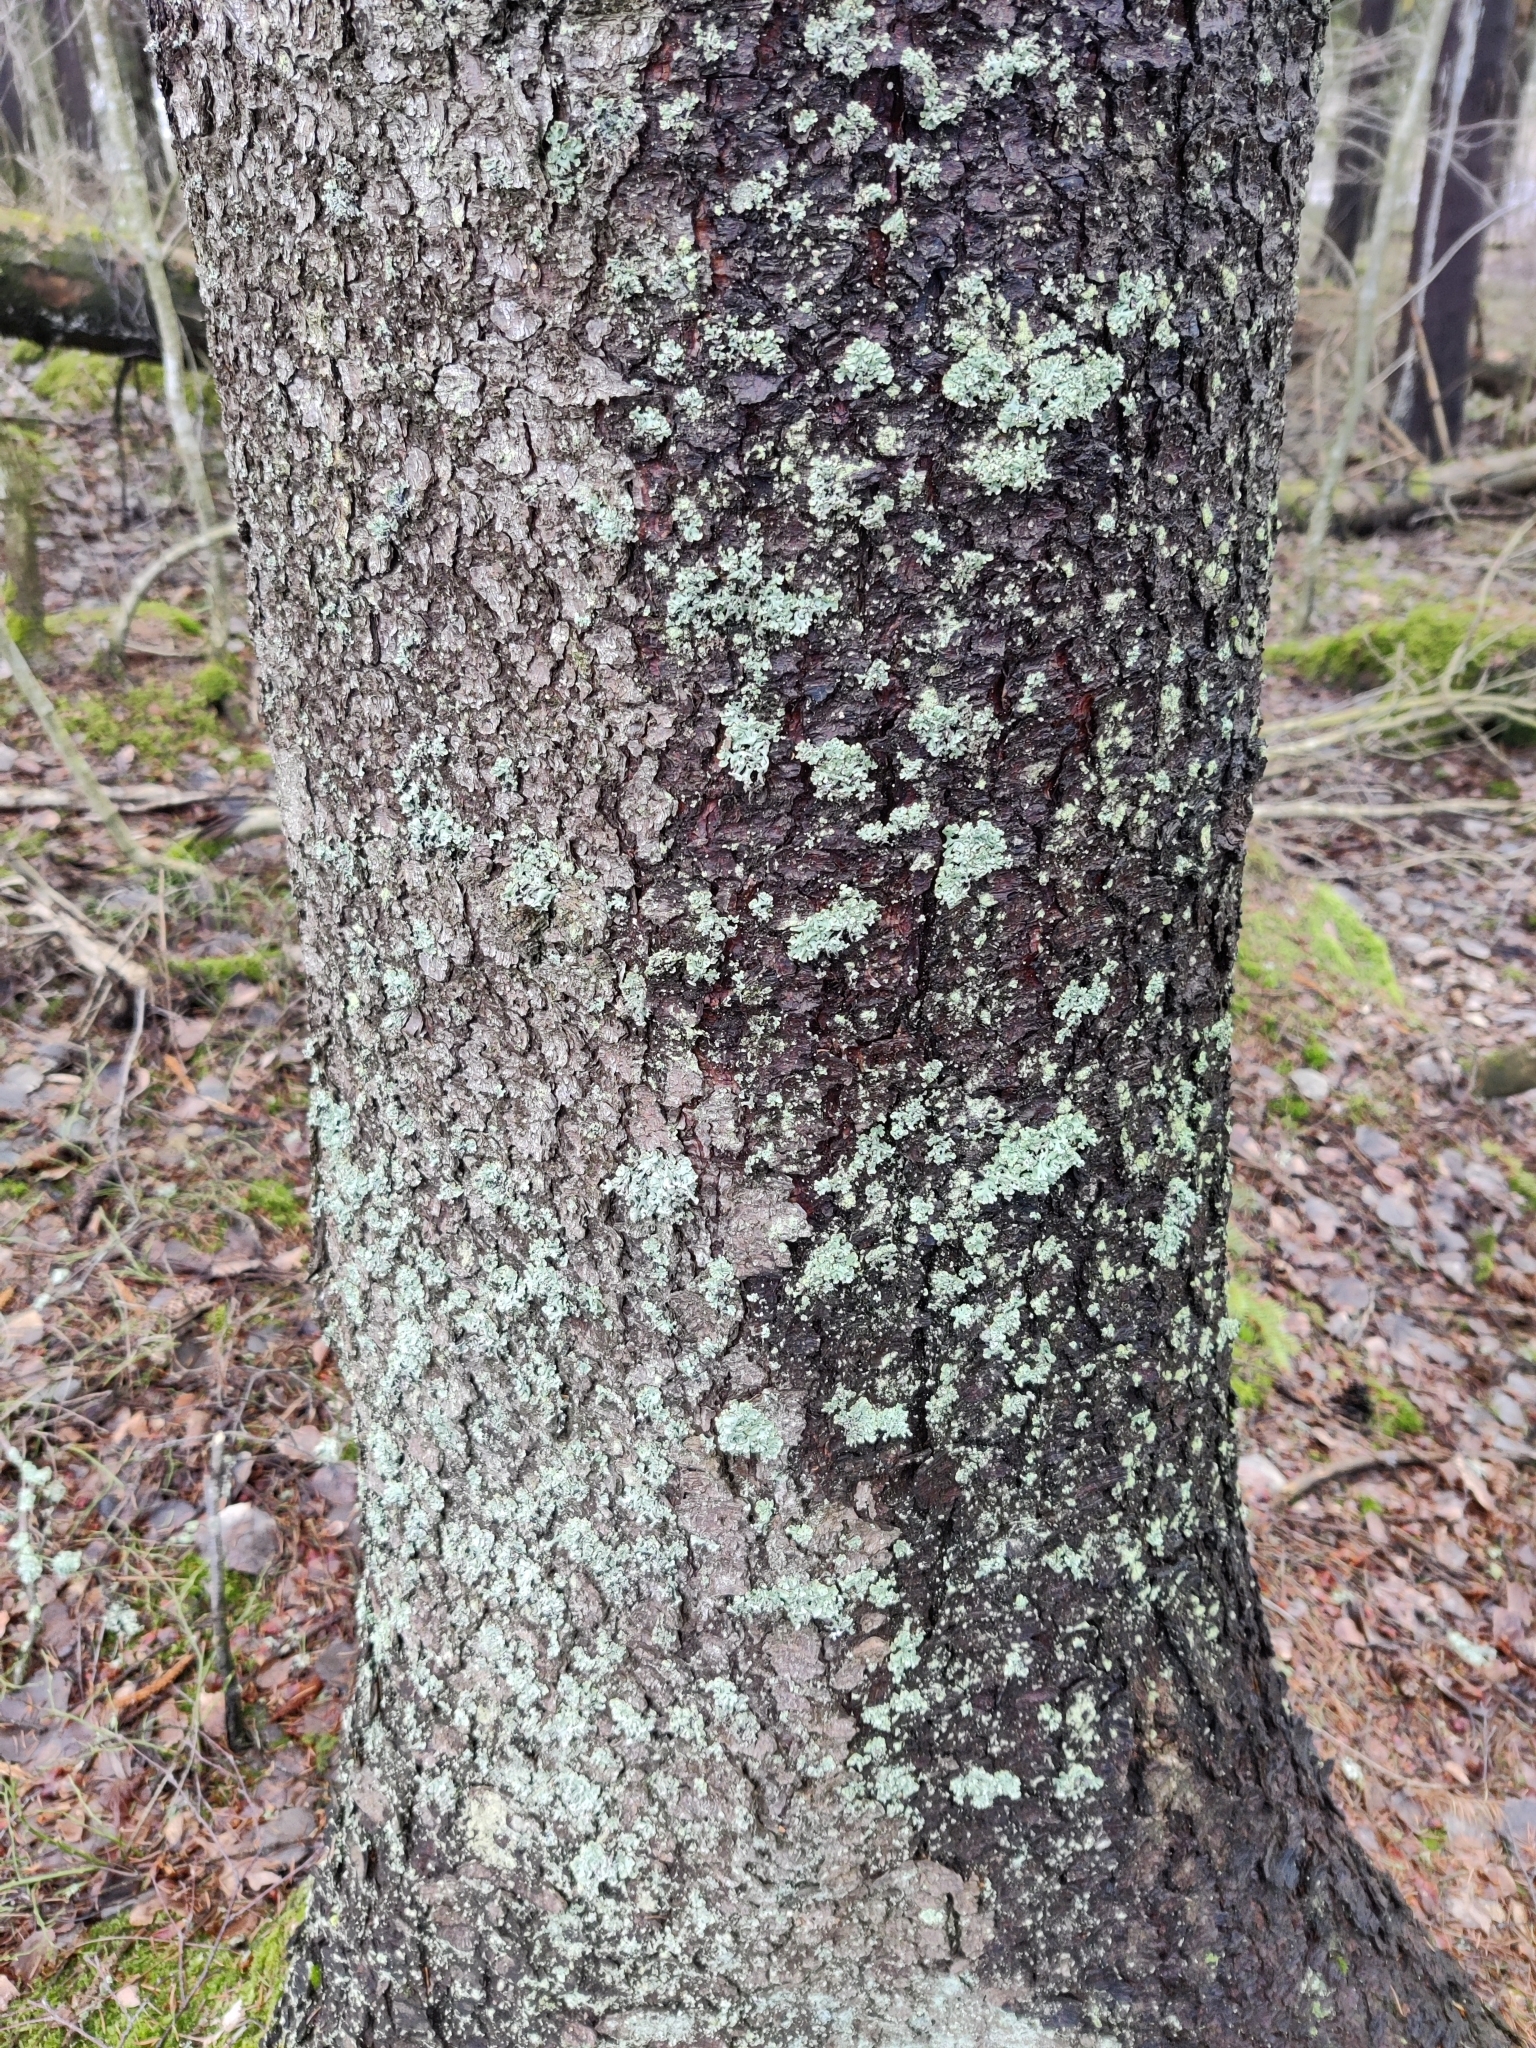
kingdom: Fungi
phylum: Ascomycota
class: Lecanoromycetes
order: Lecanorales
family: Parmeliaceae
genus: Hypogymnia
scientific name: Hypogymnia physodes
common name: Dark crottle
